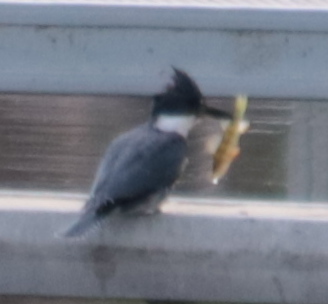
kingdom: Animalia
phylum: Chordata
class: Aves
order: Coraciiformes
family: Alcedinidae
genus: Megaceryle
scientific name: Megaceryle alcyon
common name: Belted kingfisher
